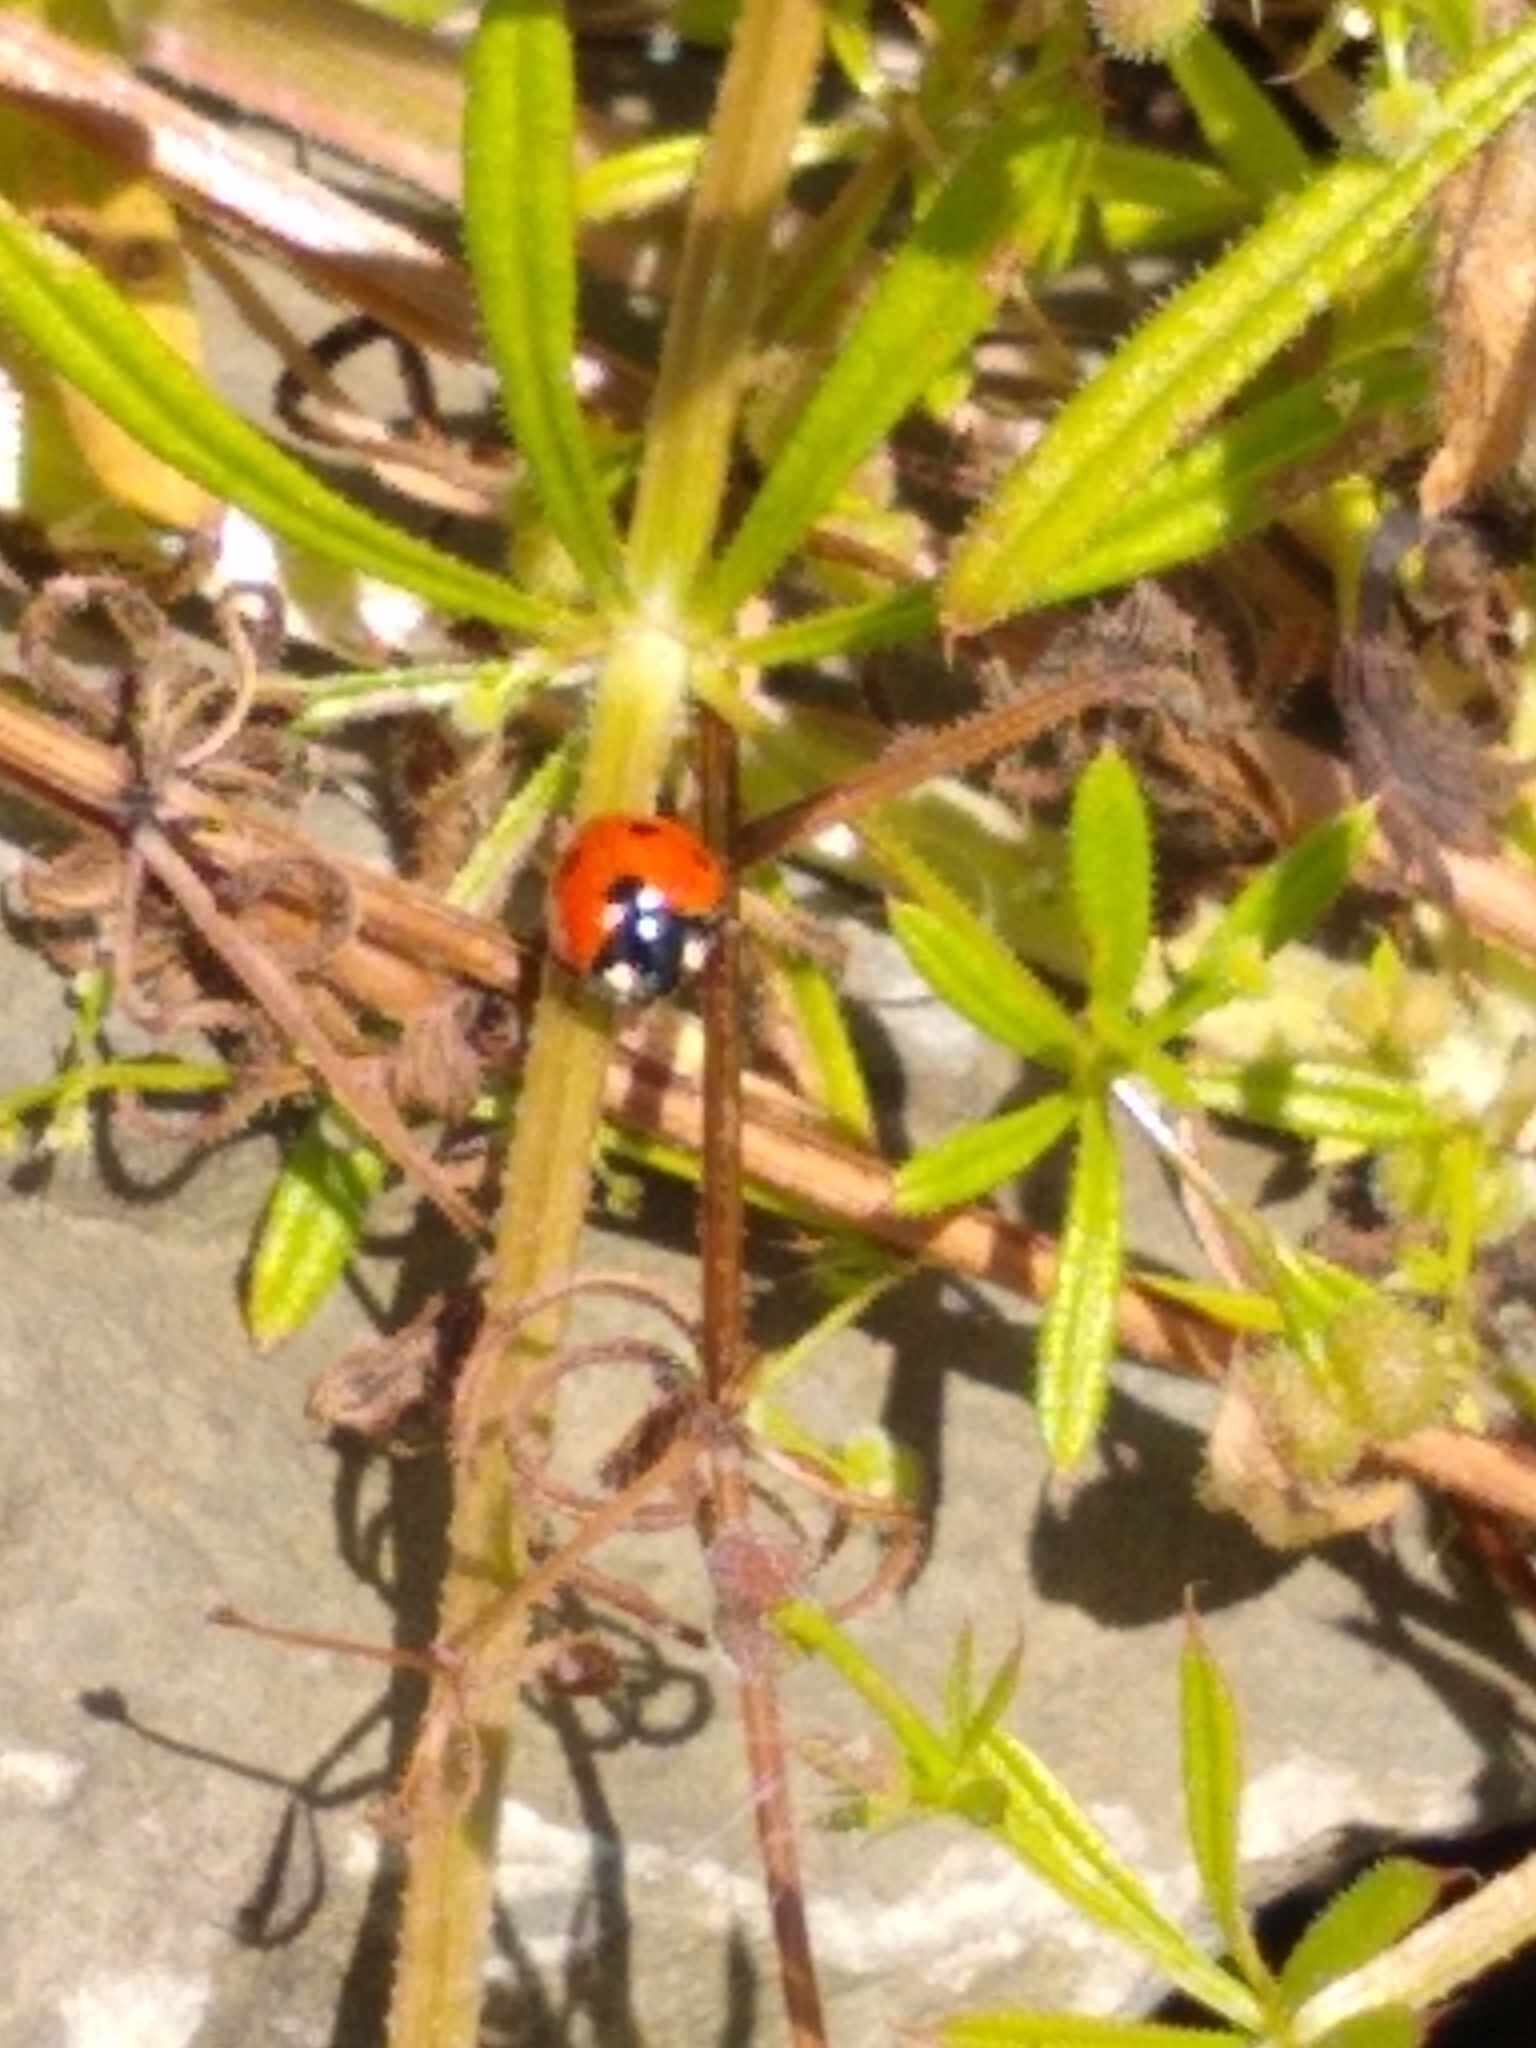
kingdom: Animalia
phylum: Arthropoda
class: Insecta
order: Coleoptera
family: Coccinellidae
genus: Coccinella
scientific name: Coccinella septempunctata
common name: Sevenspotted lady beetle
